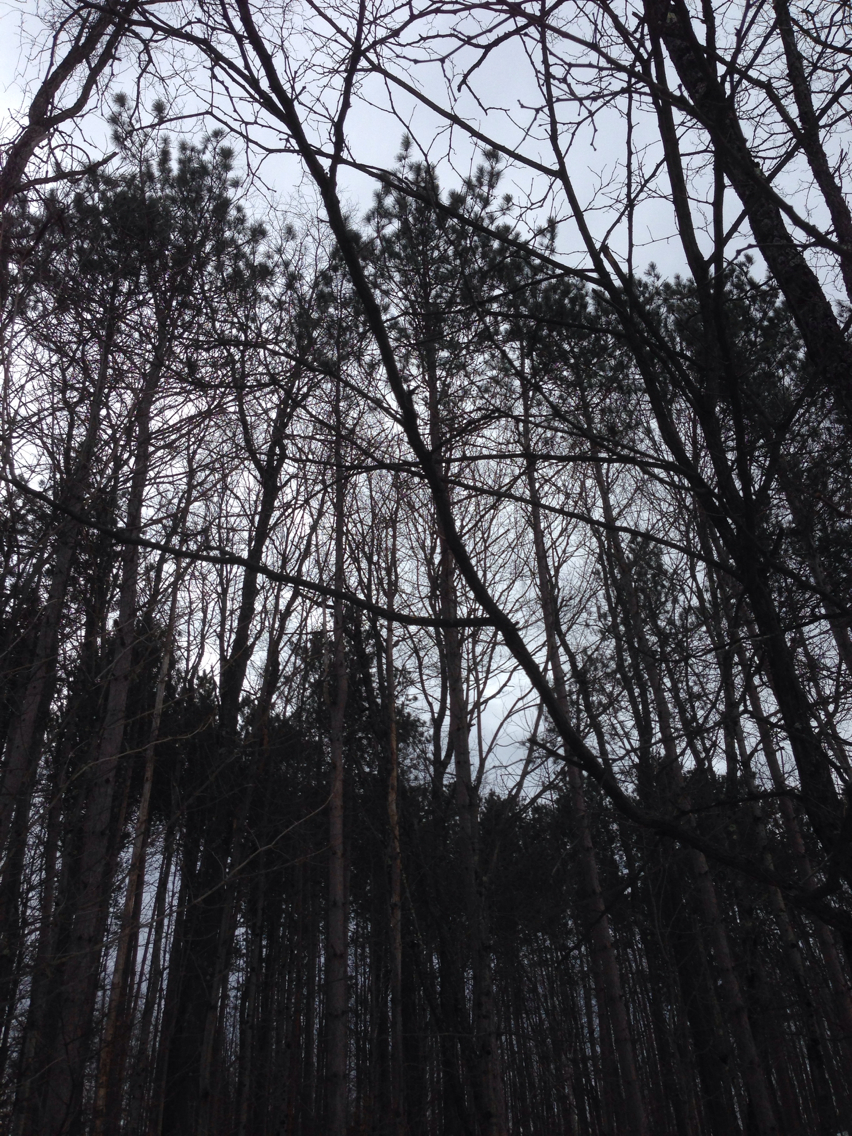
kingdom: Plantae
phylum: Tracheophyta
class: Pinopsida
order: Pinales
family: Pinaceae
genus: Pinus
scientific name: Pinus resinosa
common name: Norway pine
